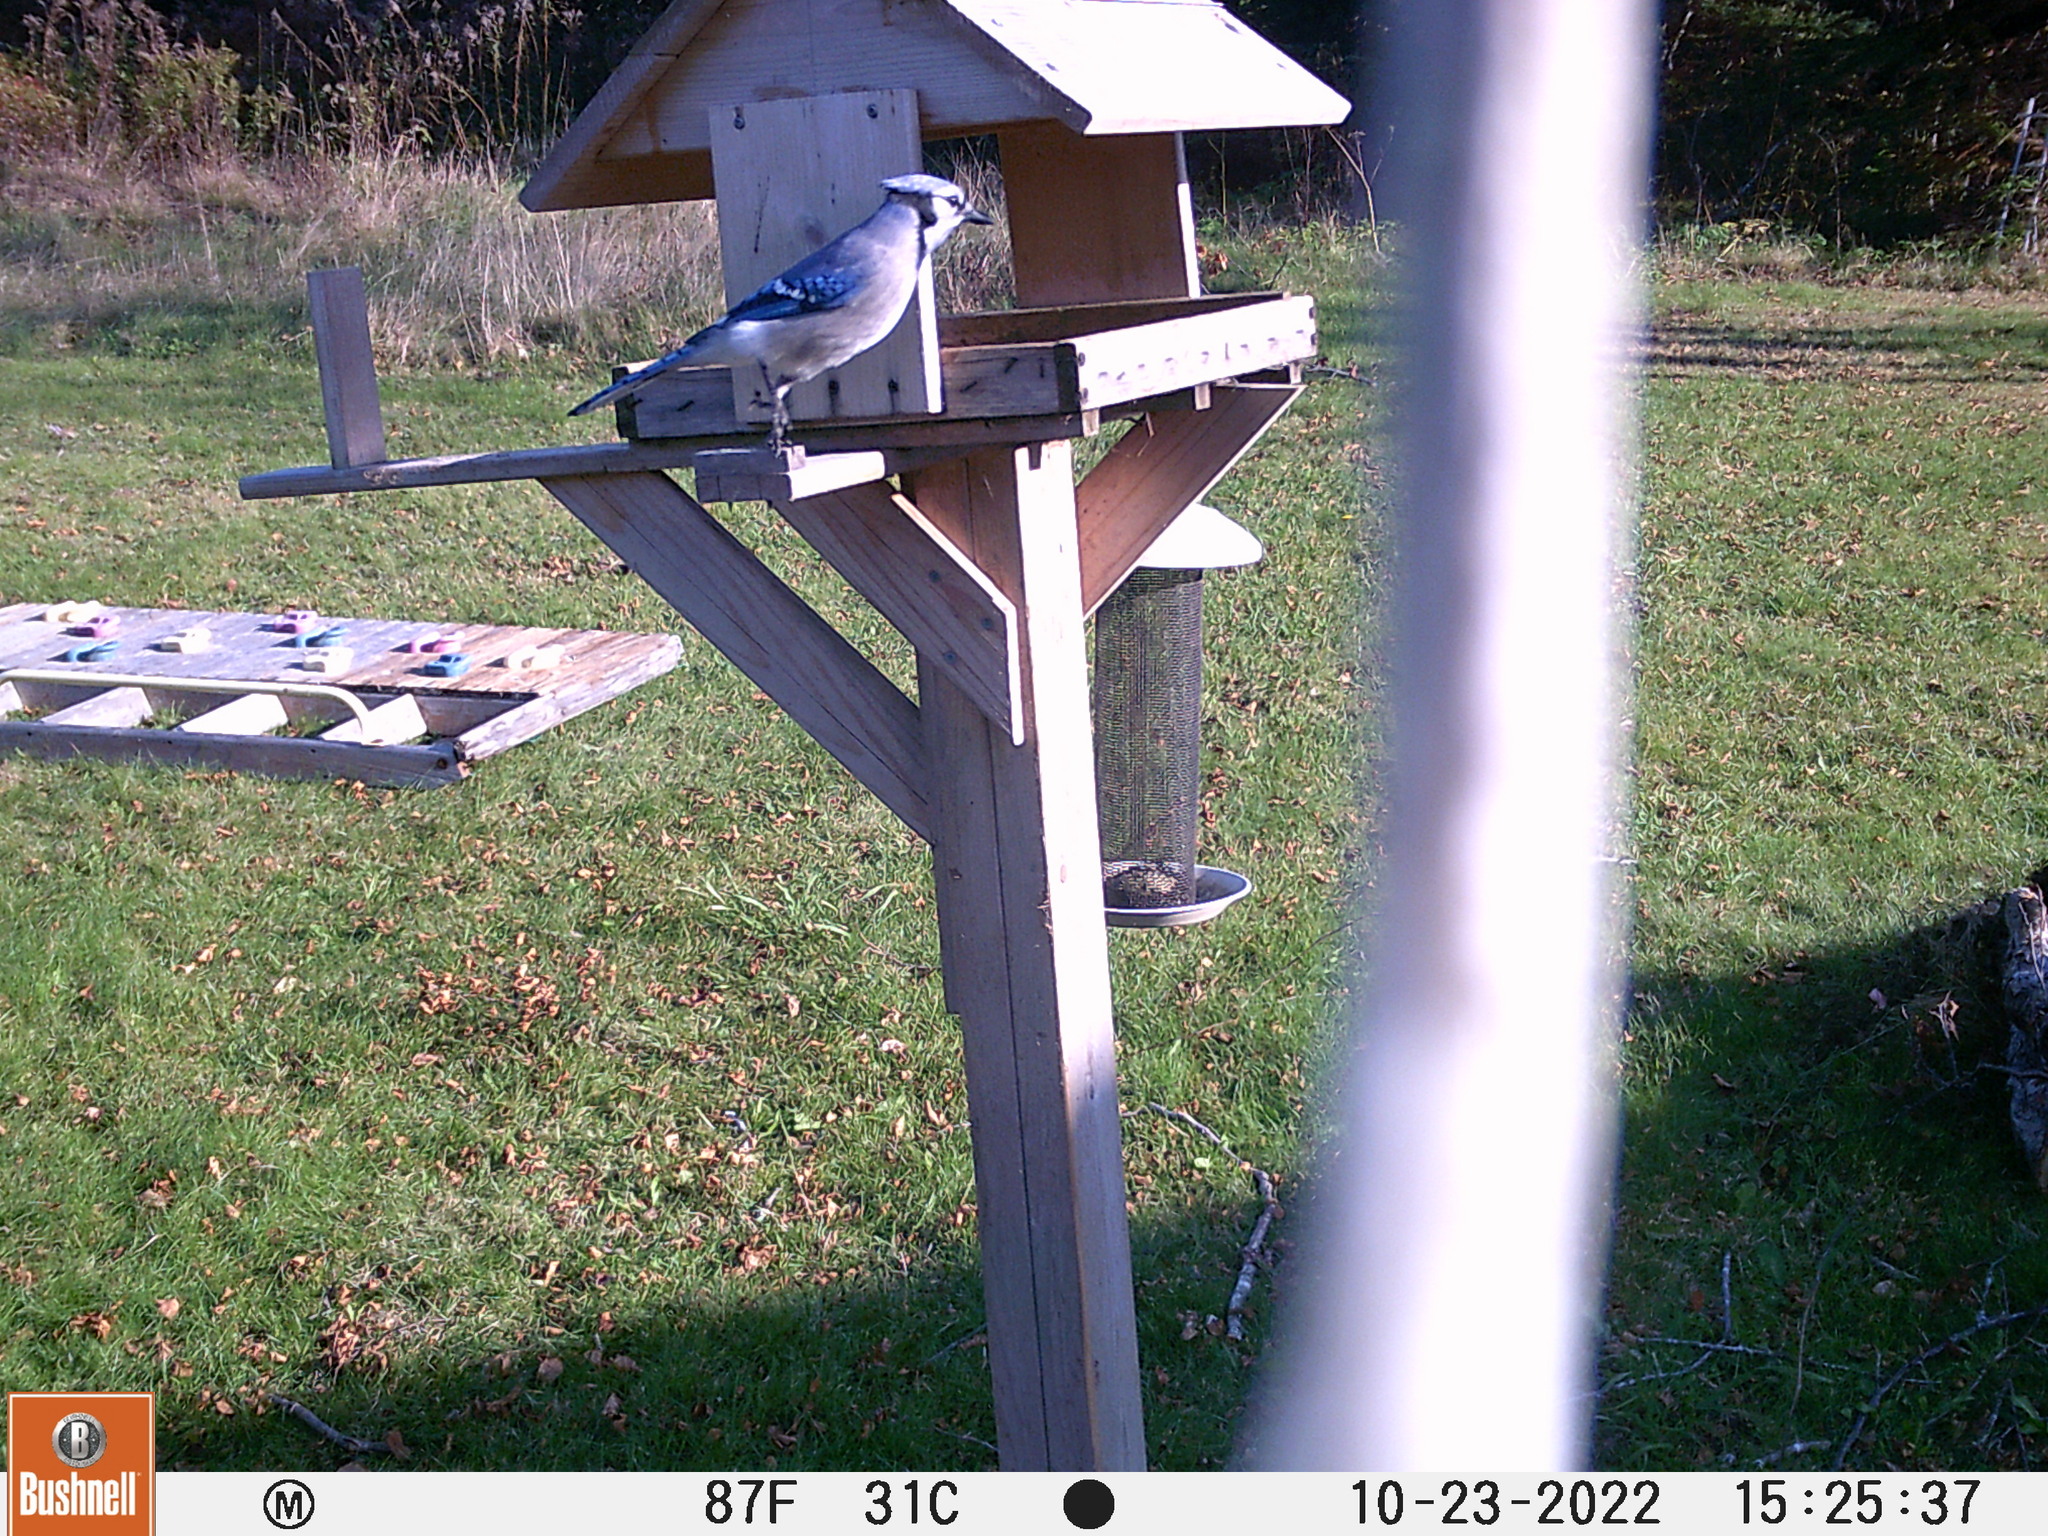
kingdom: Animalia
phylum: Chordata
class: Aves
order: Passeriformes
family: Corvidae
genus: Cyanocitta
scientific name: Cyanocitta cristata
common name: Blue jay
